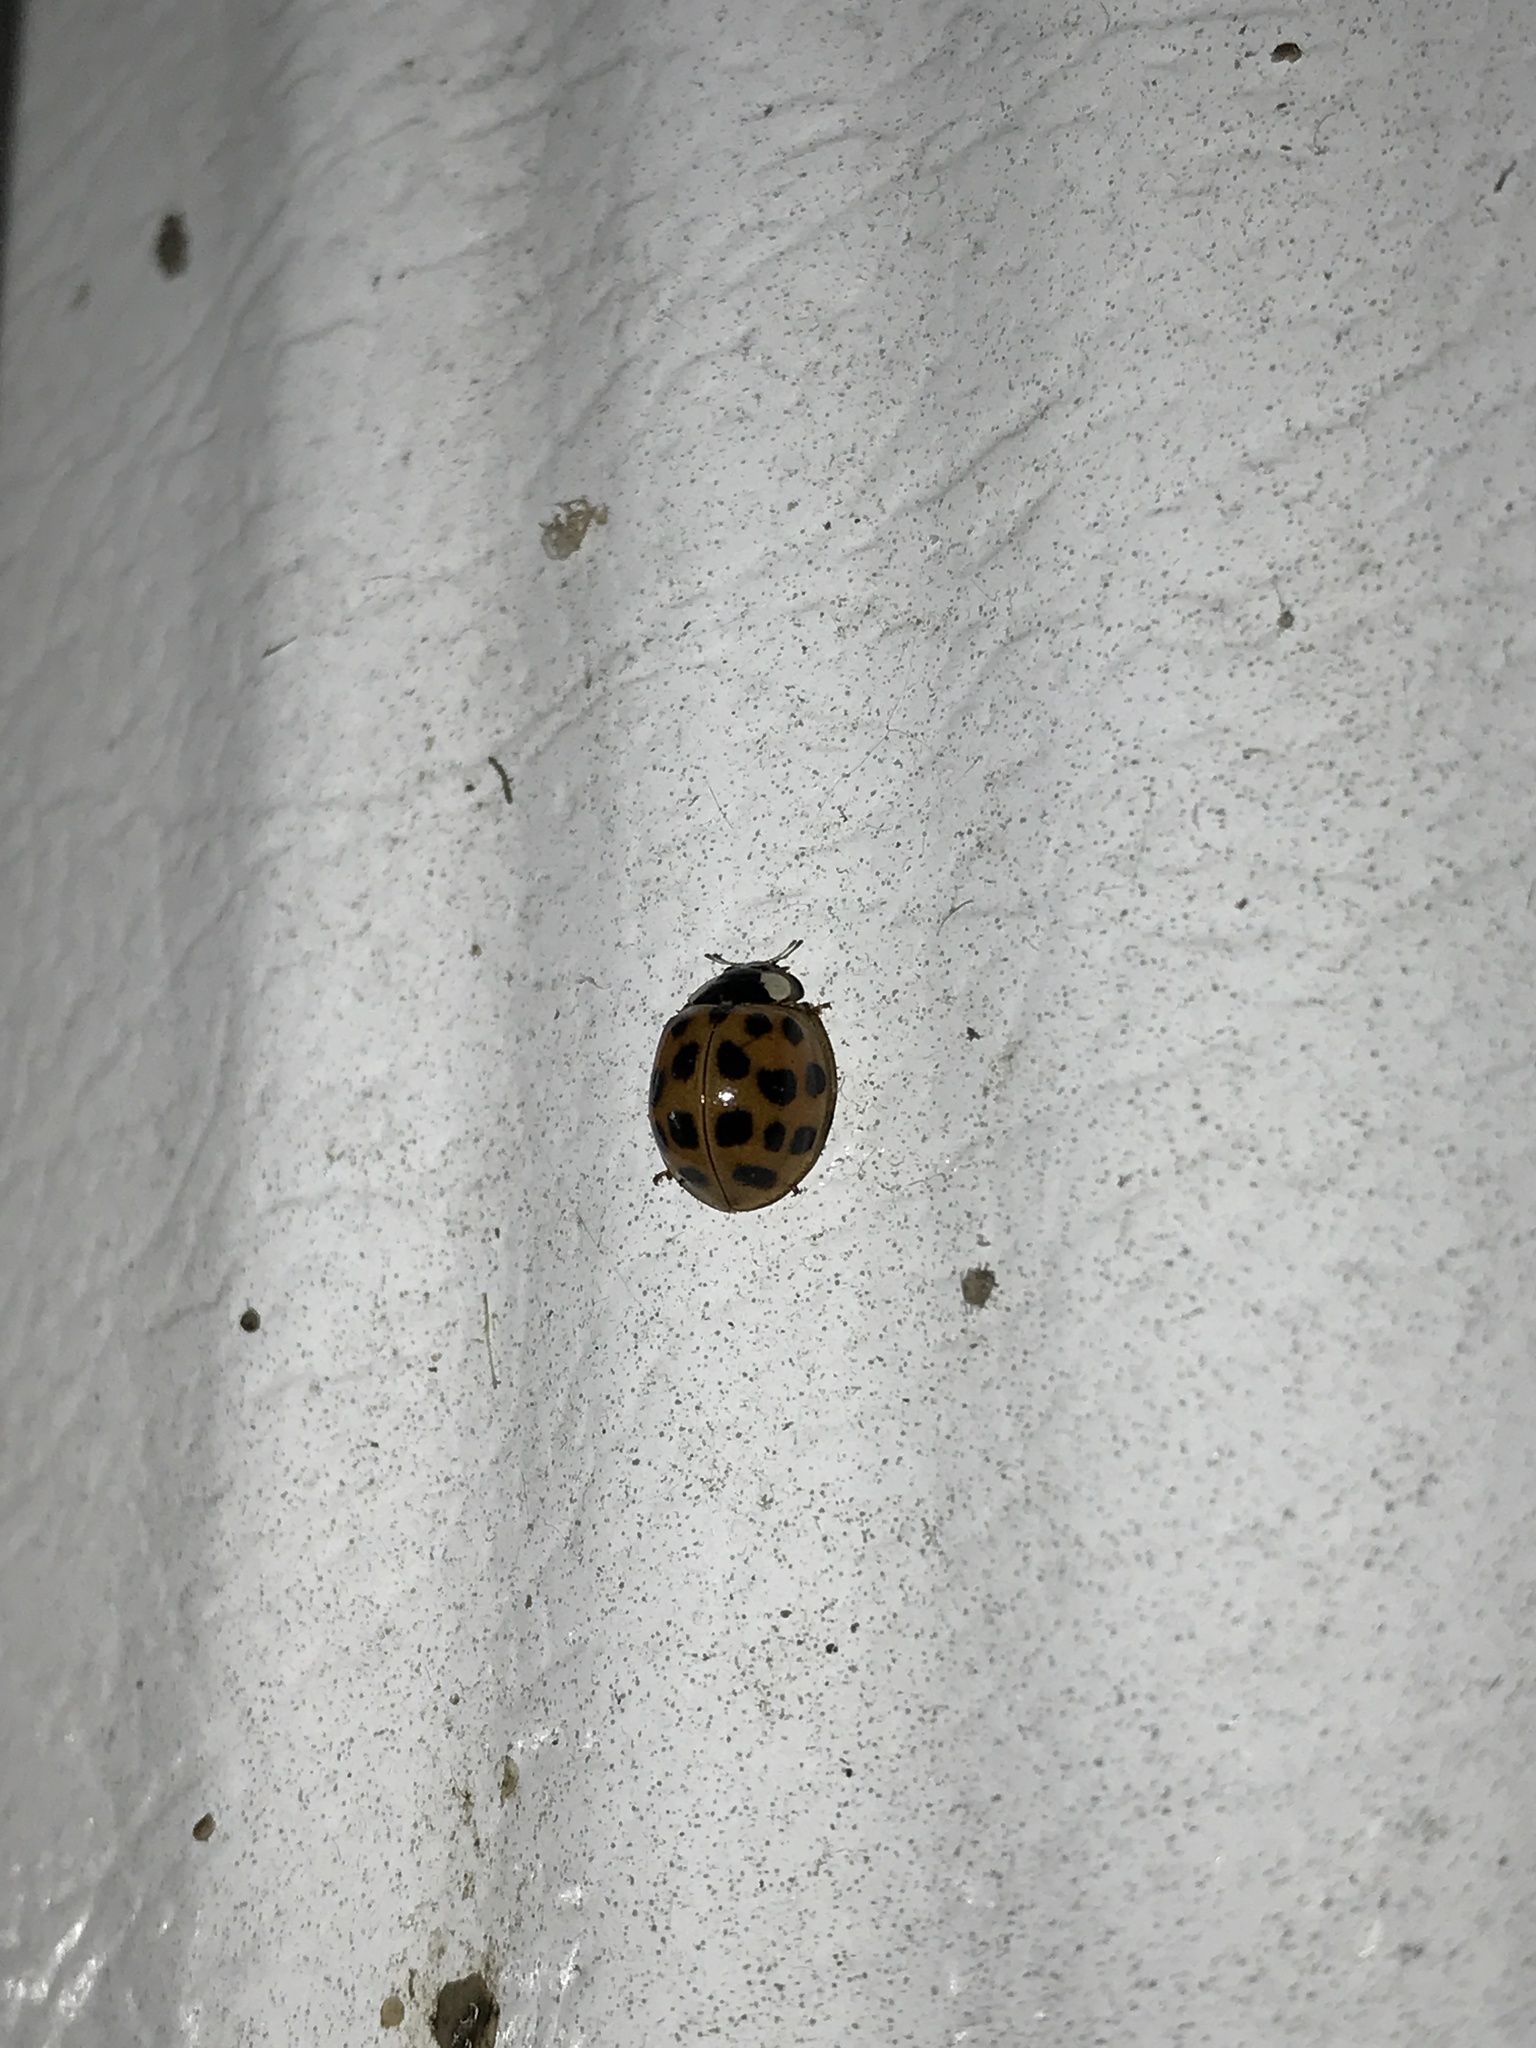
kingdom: Animalia
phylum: Arthropoda
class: Insecta
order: Coleoptera
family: Coccinellidae
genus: Harmonia
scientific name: Harmonia axyridis
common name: Harlequin ladybird
